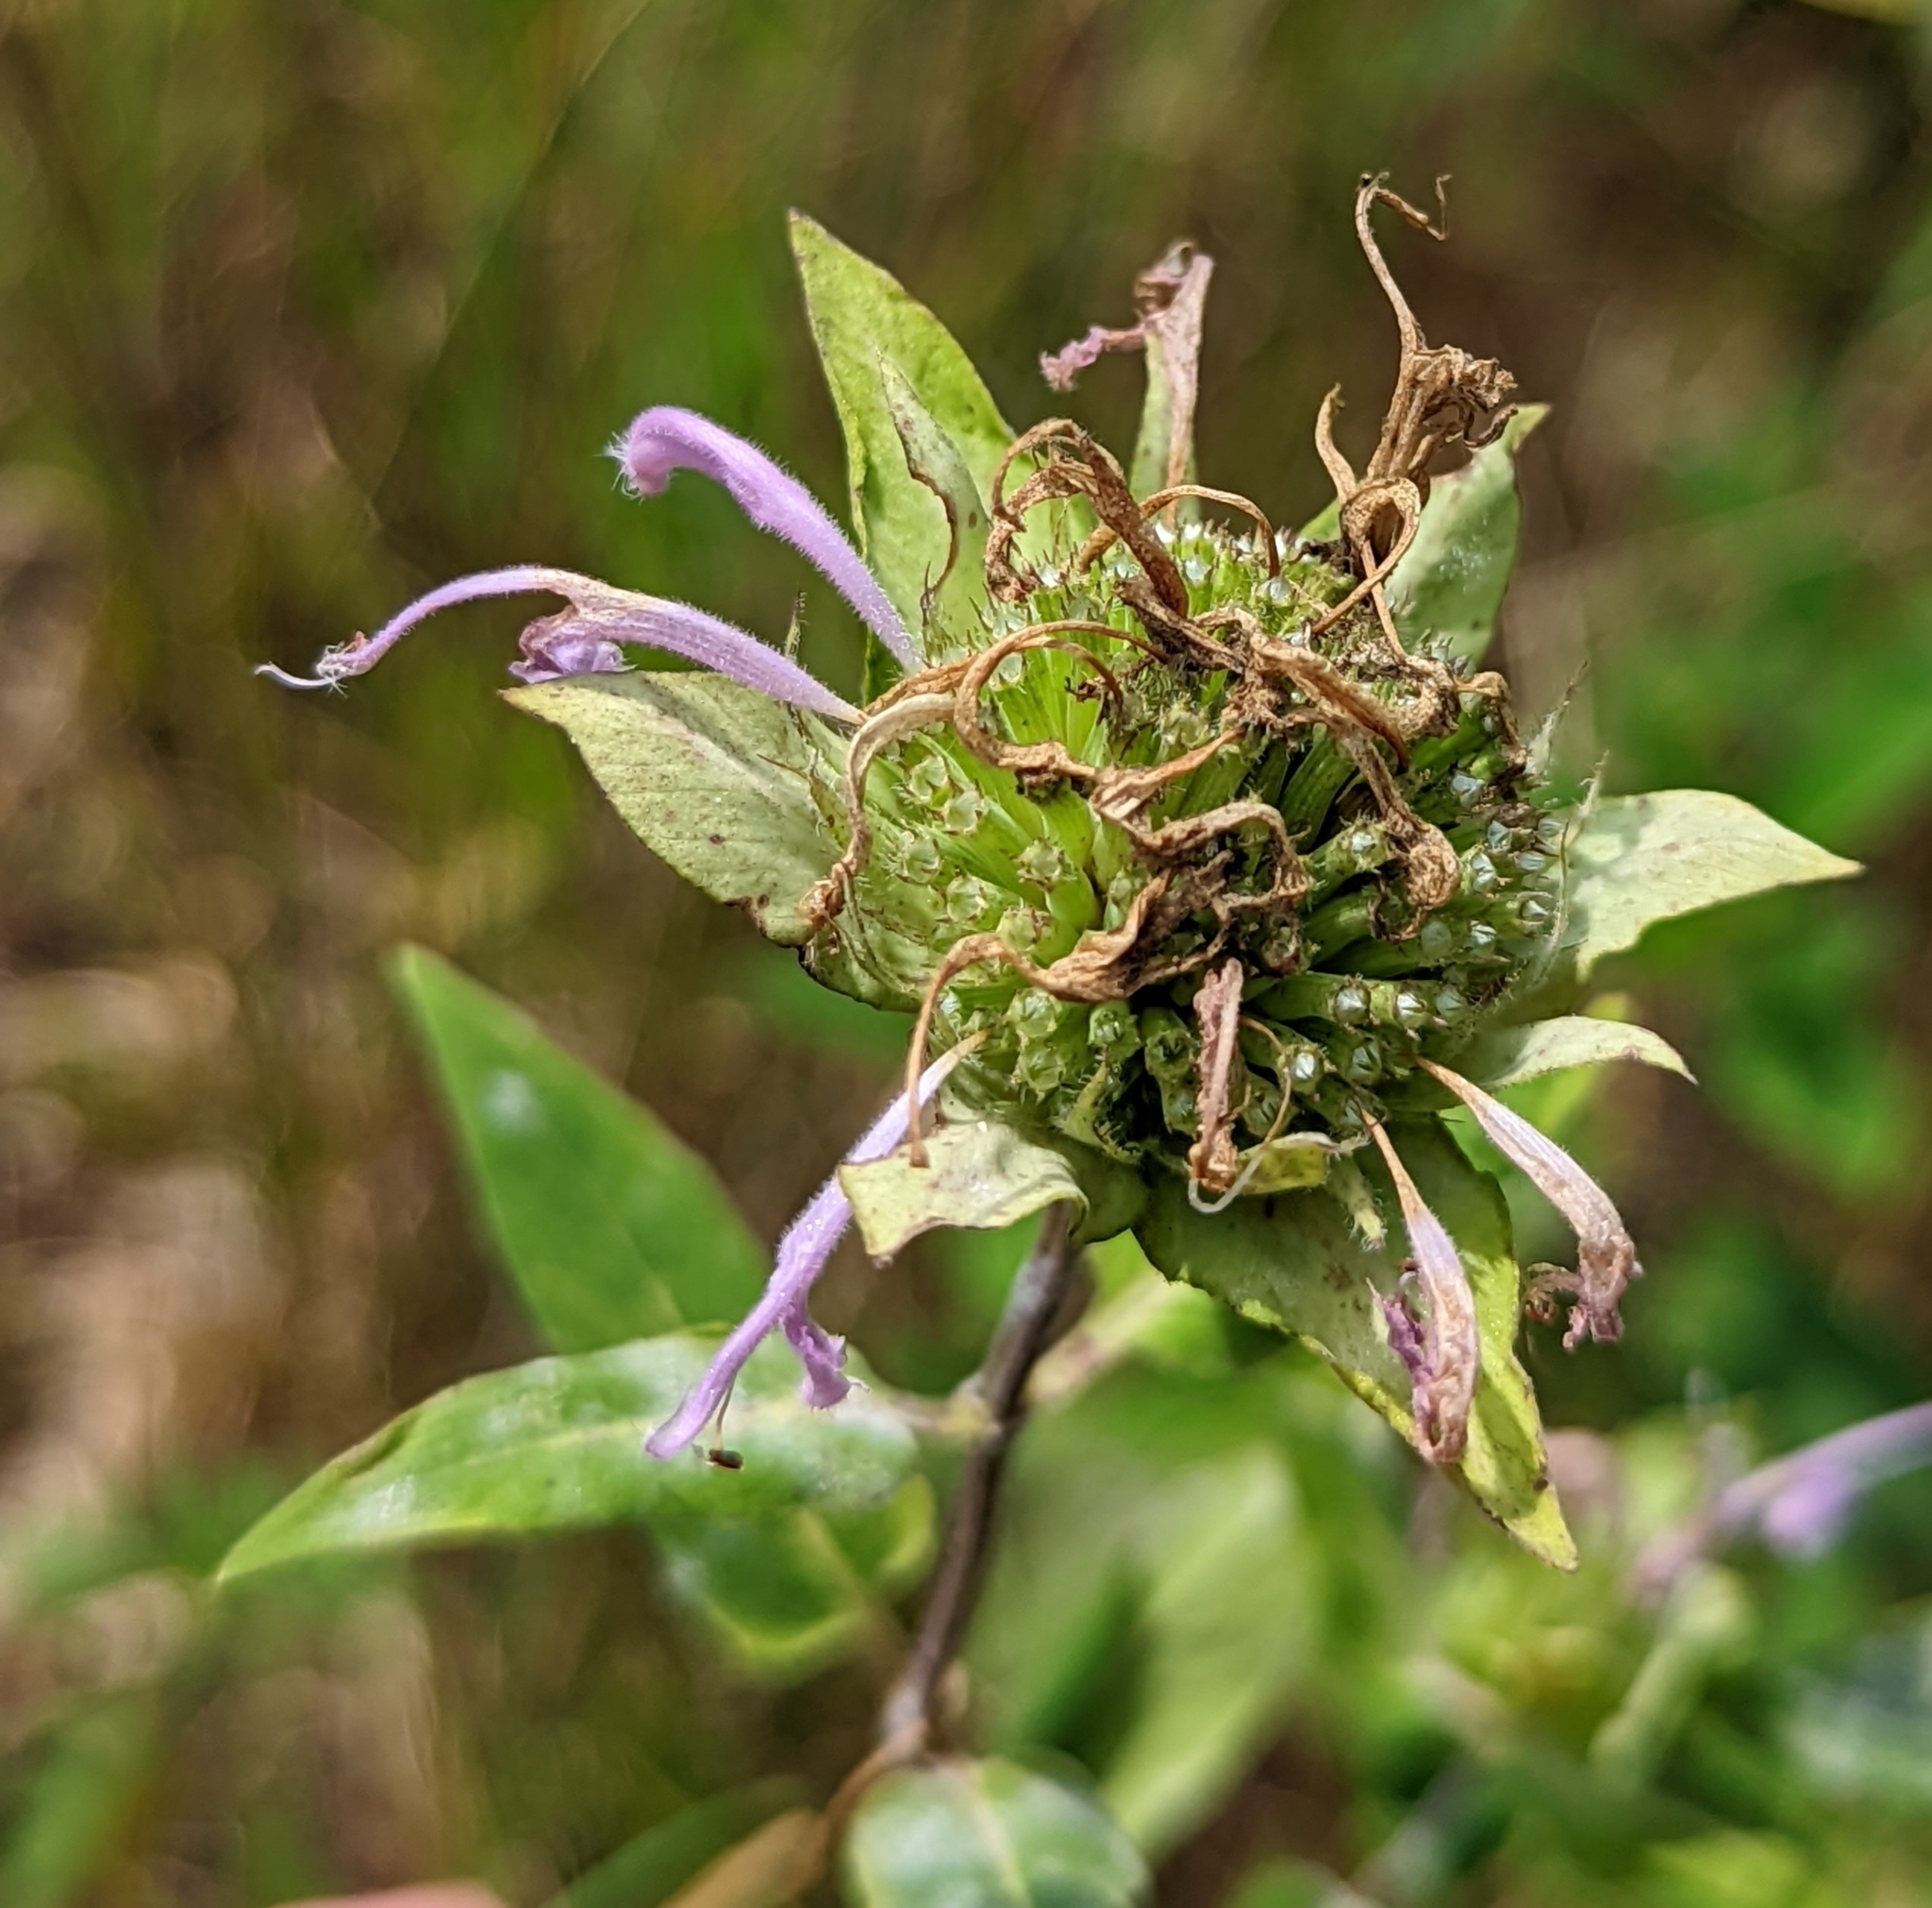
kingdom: Plantae
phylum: Tracheophyta
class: Magnoliopsida
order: Lamiales
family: Lamiaceae
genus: Monarda
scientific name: Monarda fistulosa
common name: Purple beebalm
